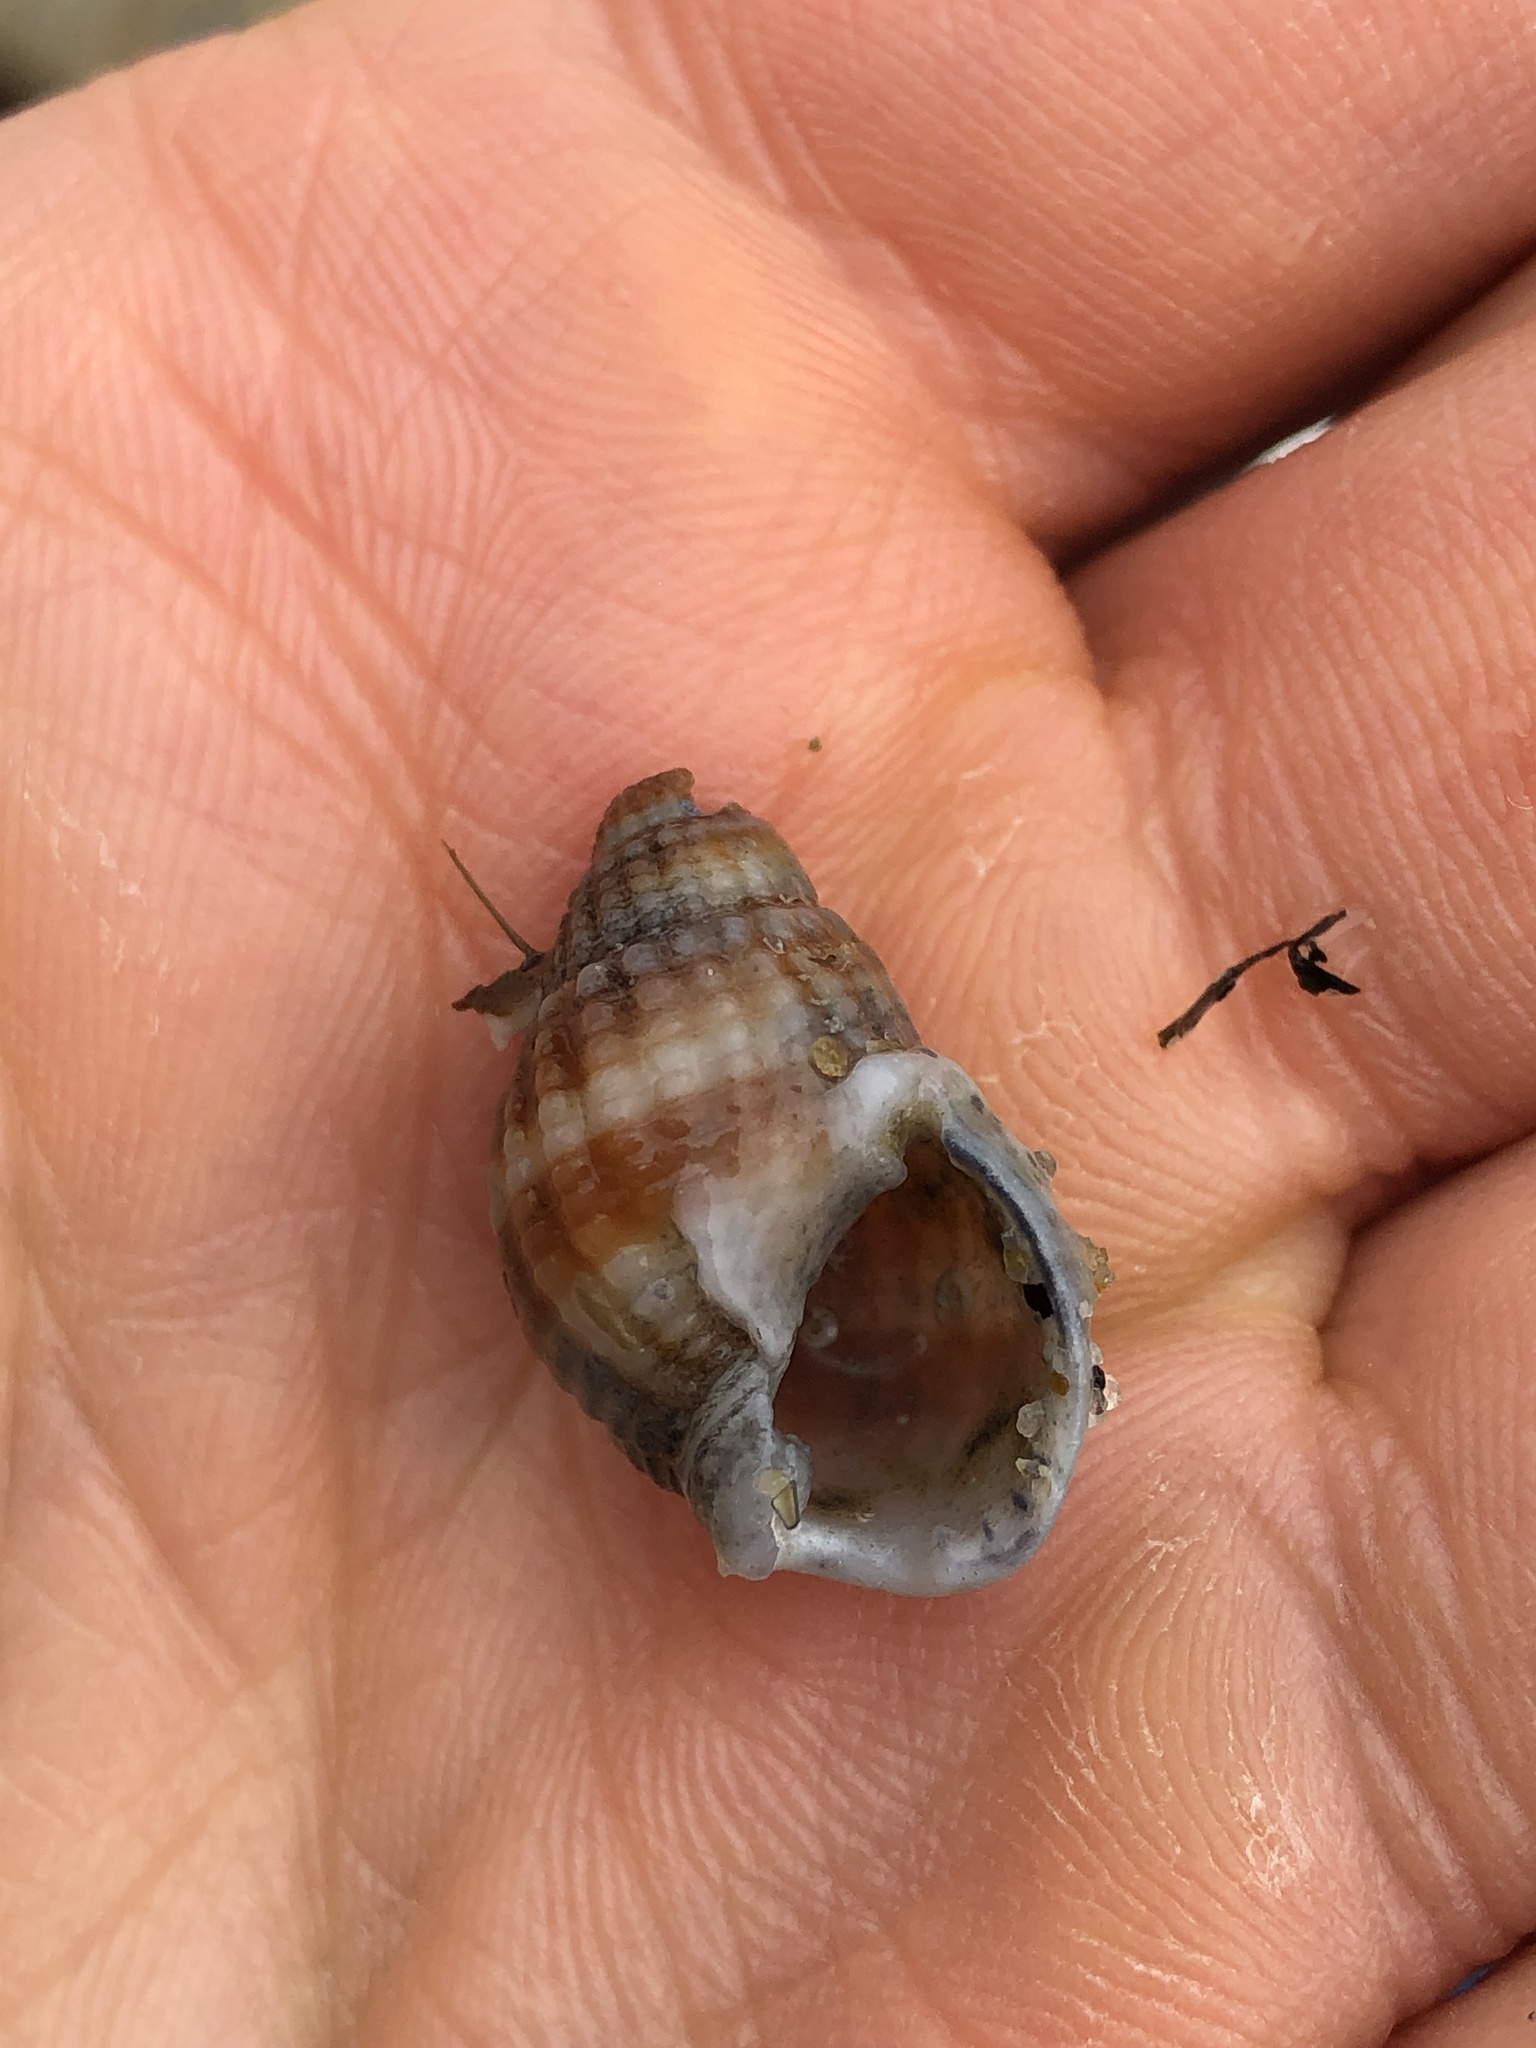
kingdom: Animalia
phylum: Mollusca
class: Gastropoda
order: Neogastropoda
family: Nassariidae
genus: Nassarius
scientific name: Nassarius livescens
